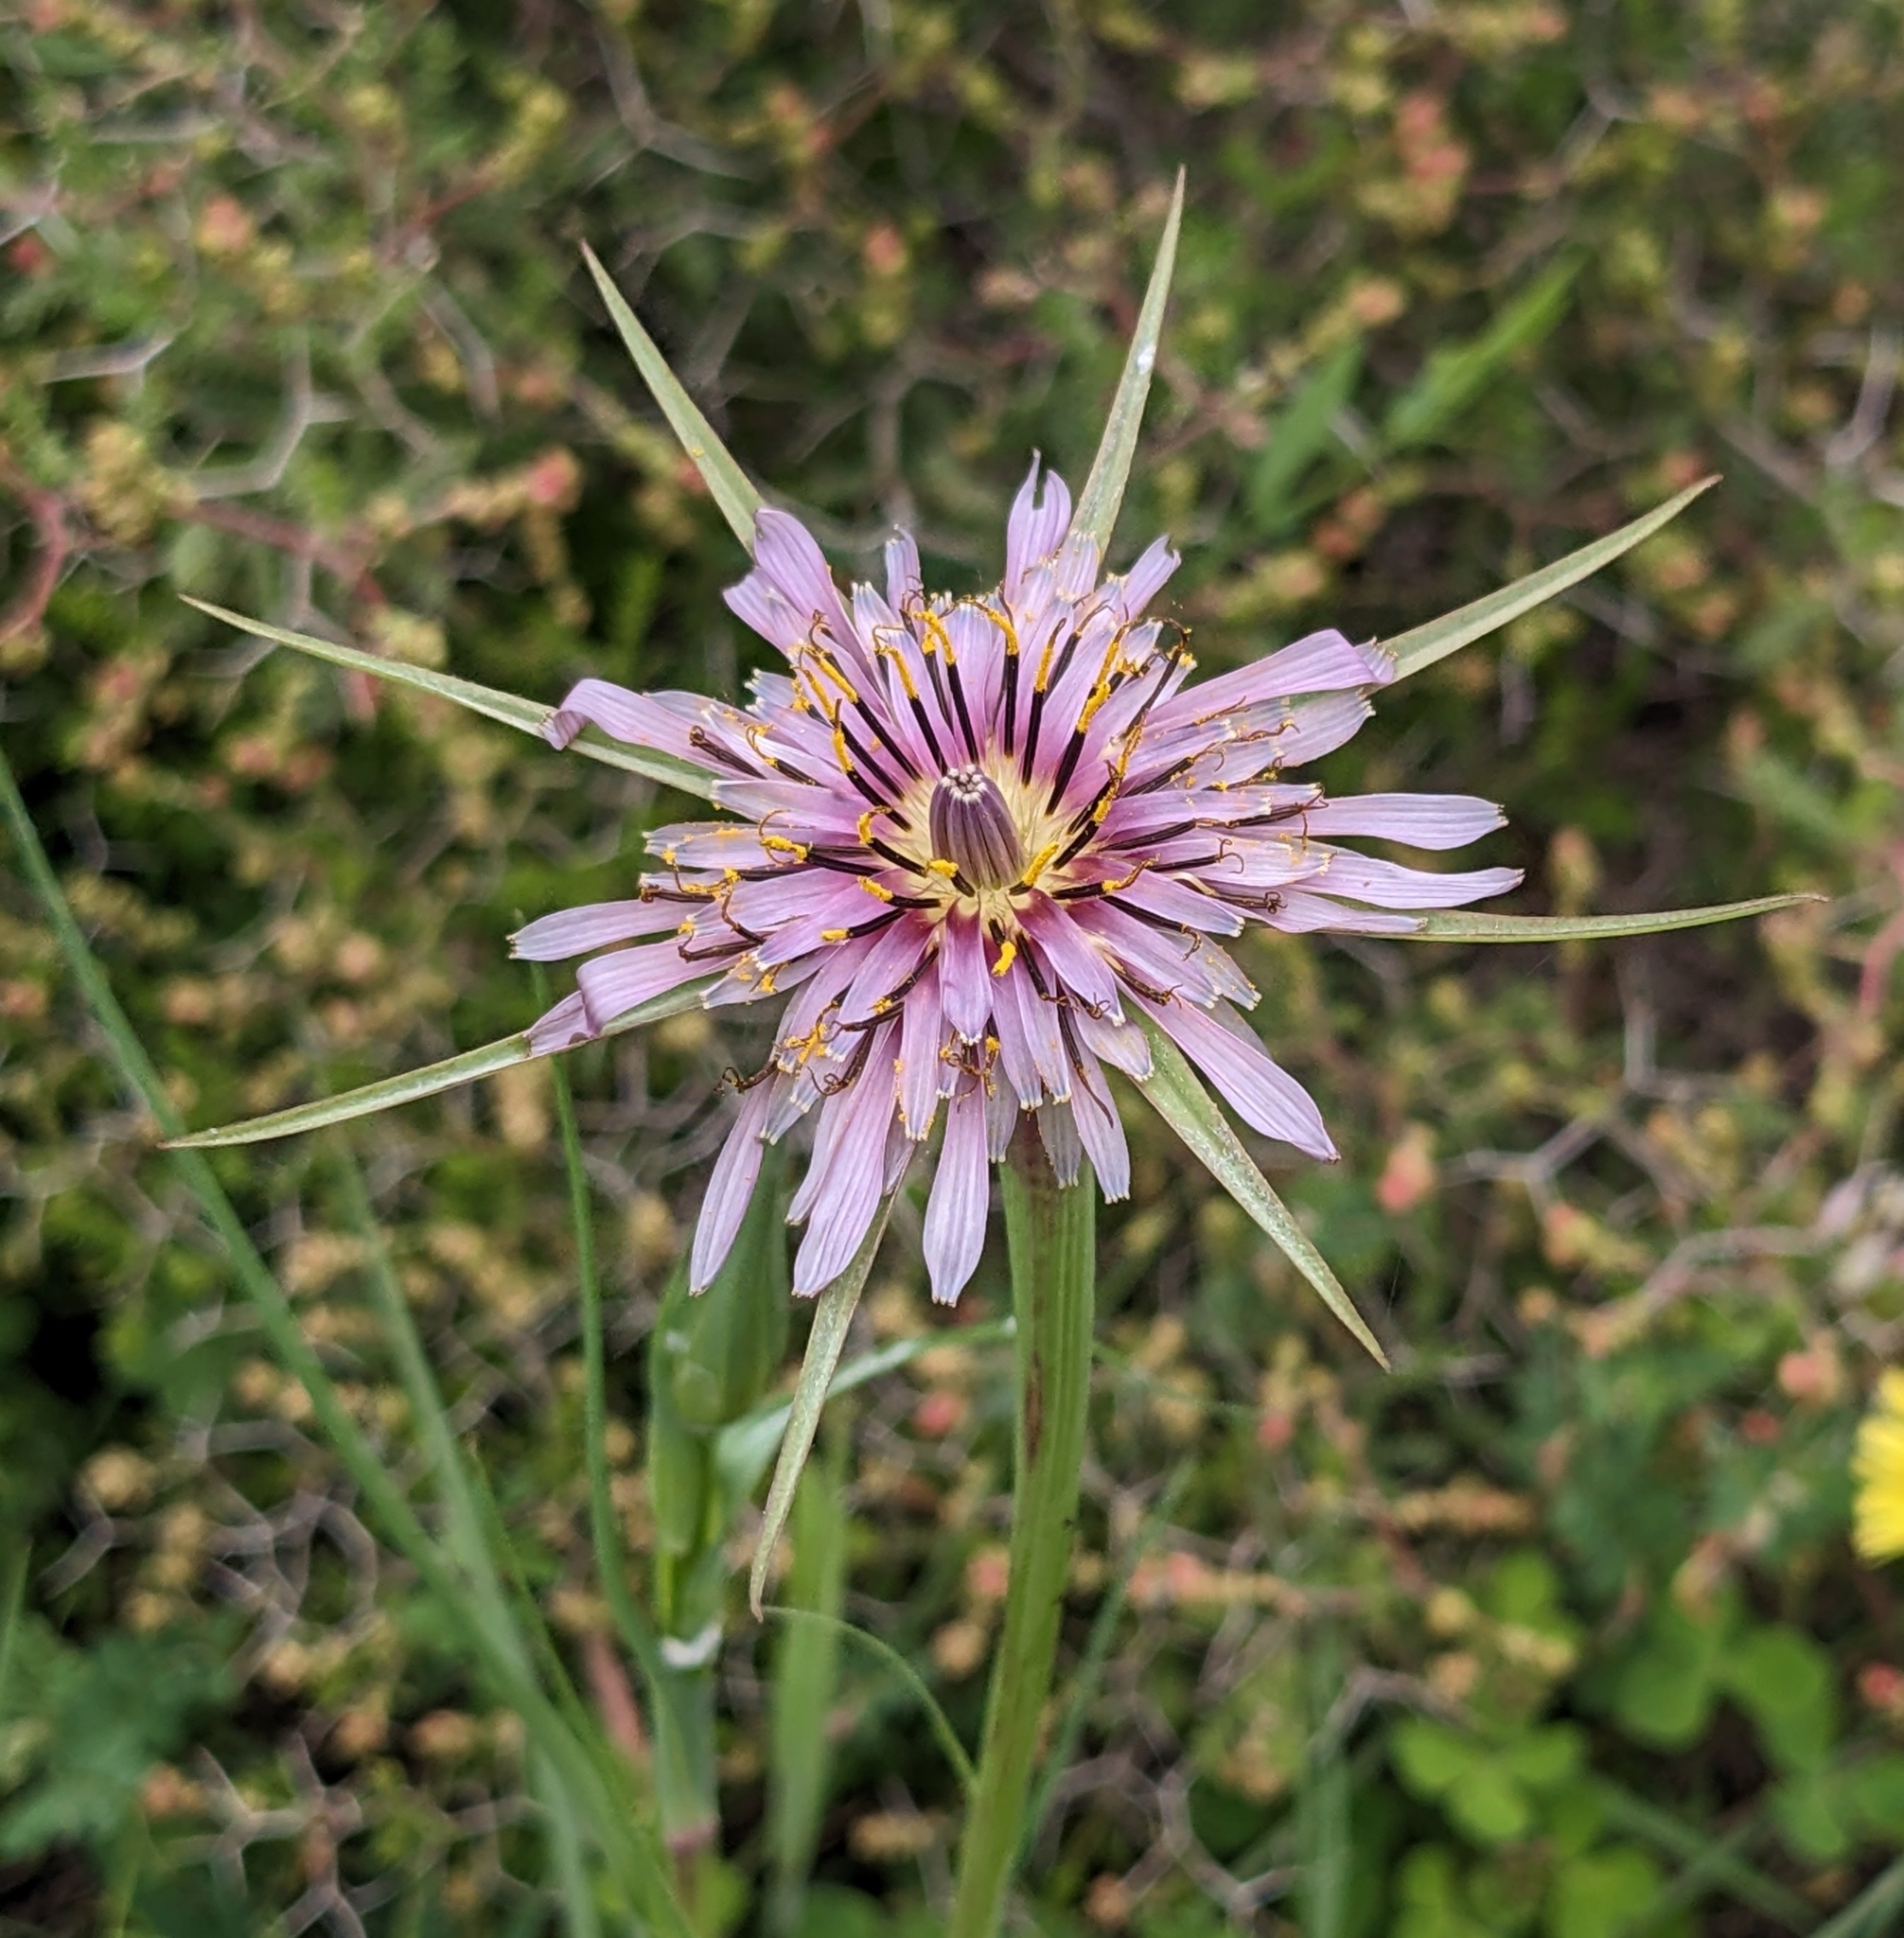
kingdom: Plantae
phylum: Tracheophyta
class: Magnoliopsida
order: Asterales
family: Asteraceae
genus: Tragopogon
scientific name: Tragopogon porrifolius
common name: Salsify
